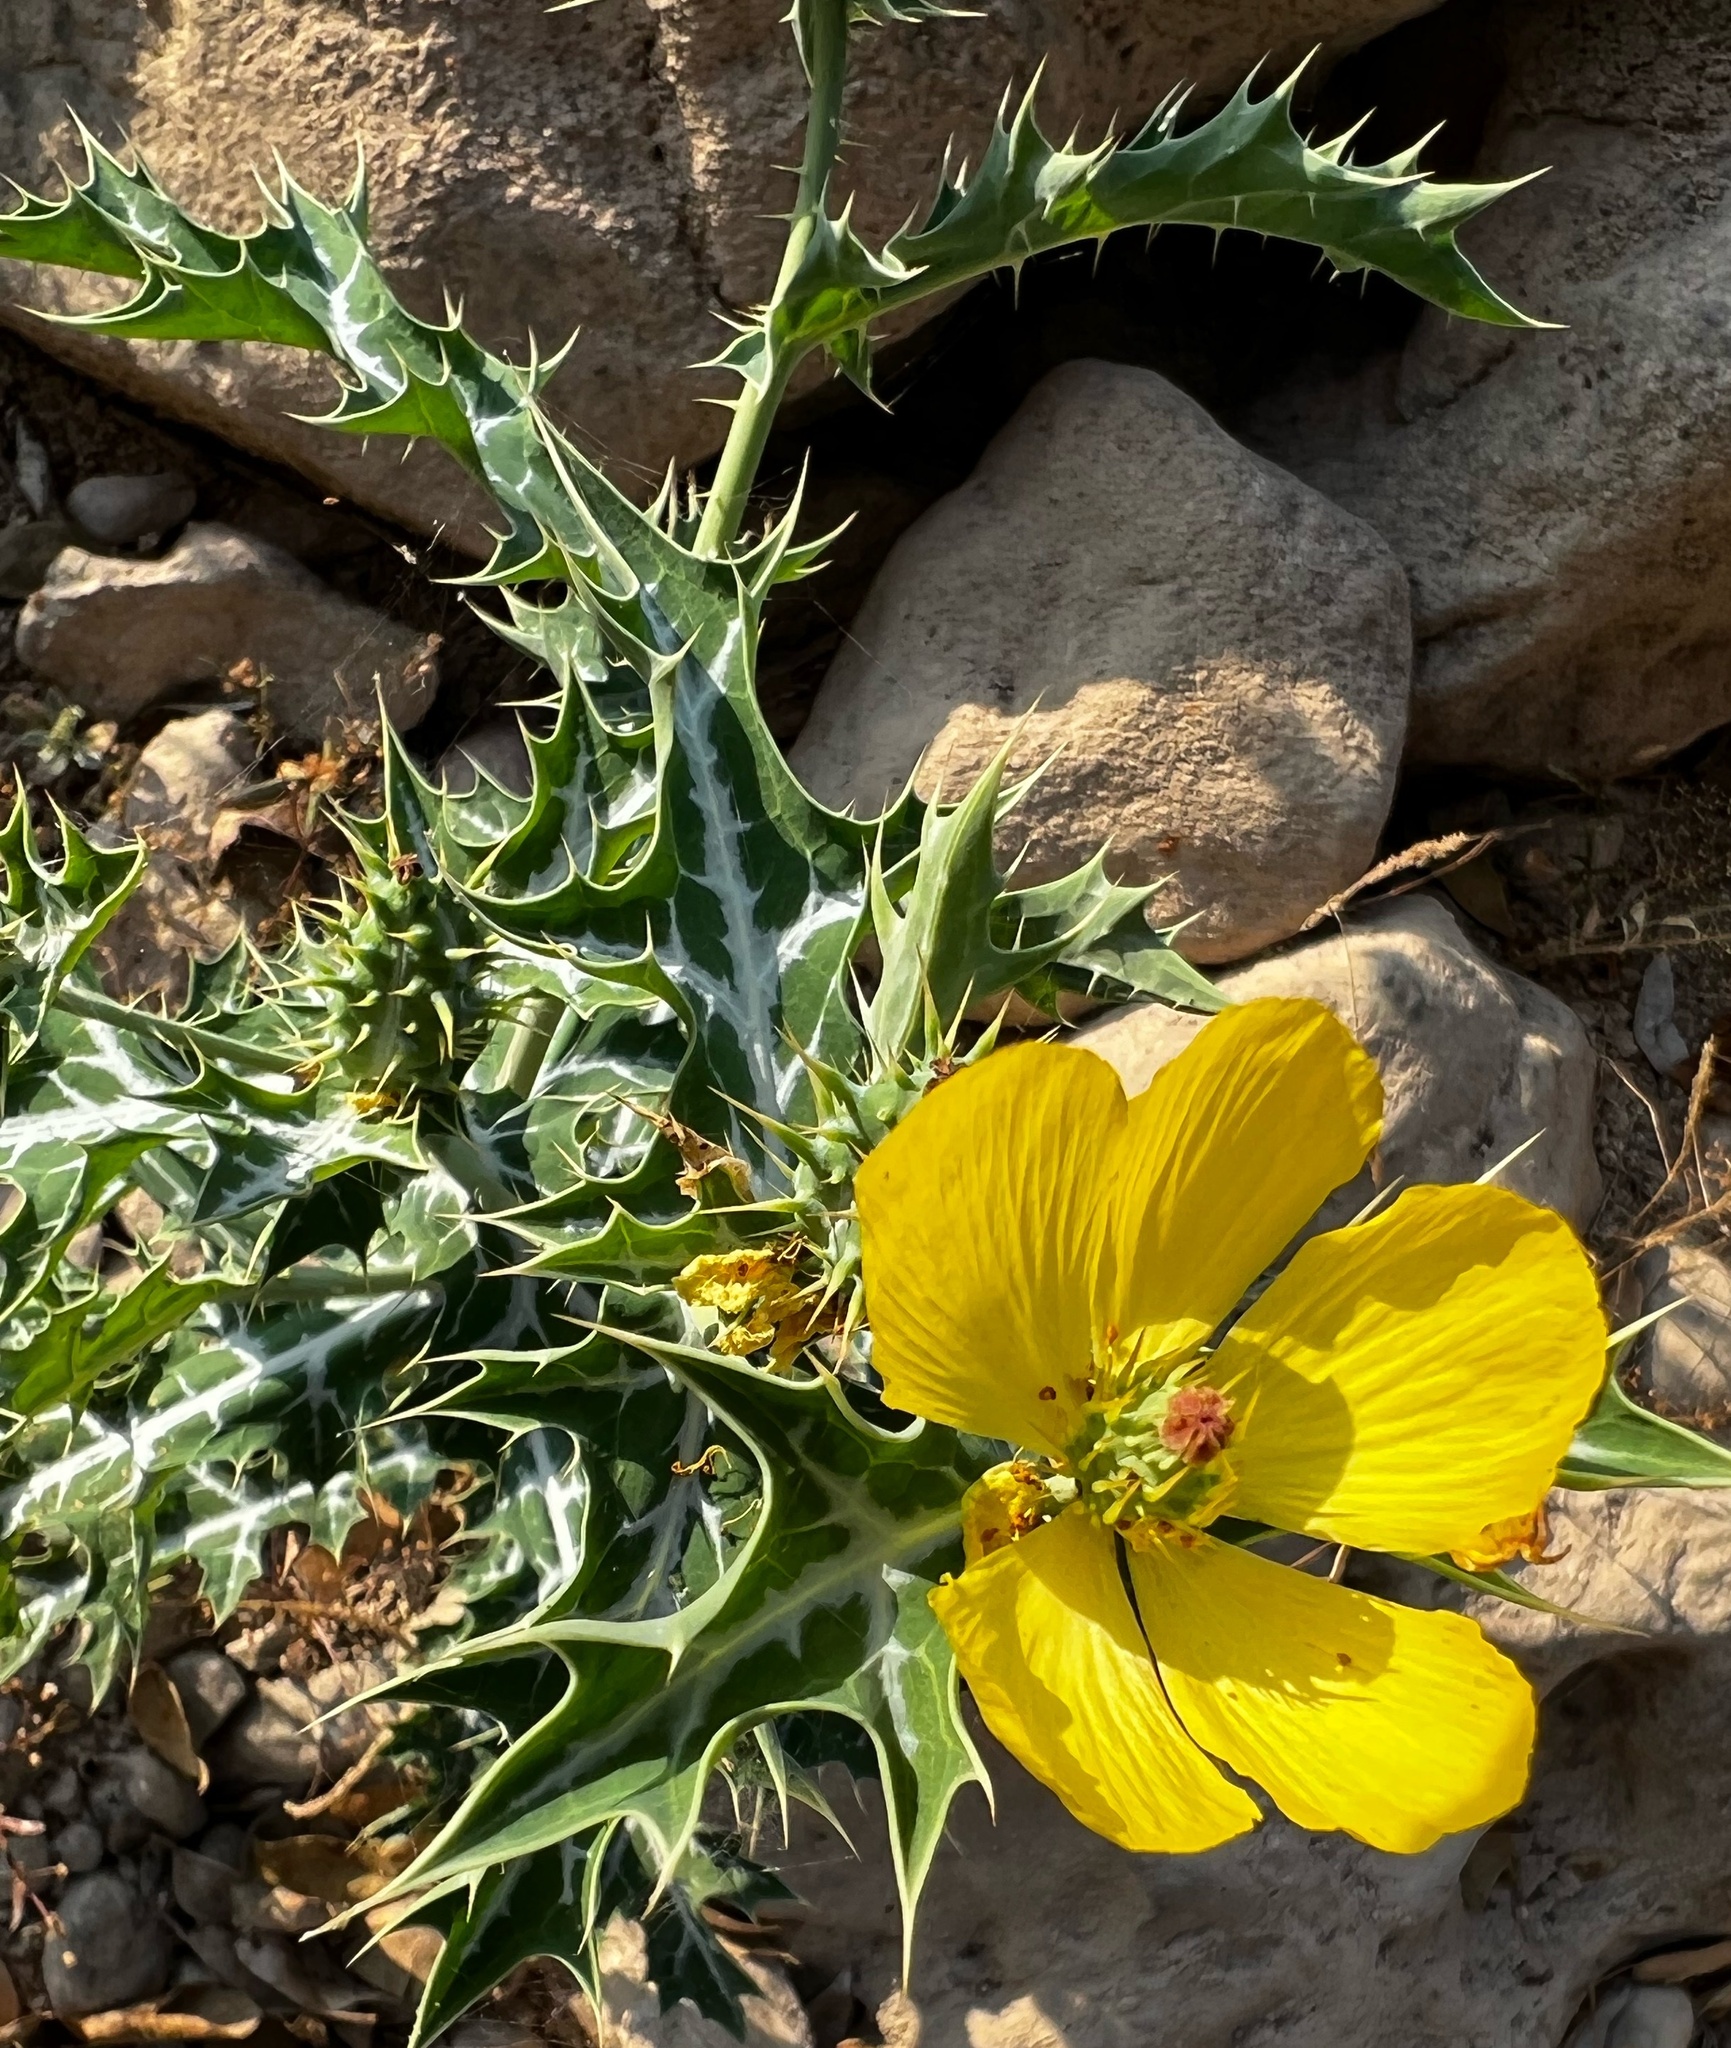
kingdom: Plantae
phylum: Tracheophyta
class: Magnoliopsida
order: Ranunculales
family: Papaveraceae
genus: Argemone
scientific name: Argemone mexicana
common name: Mexican poppy
